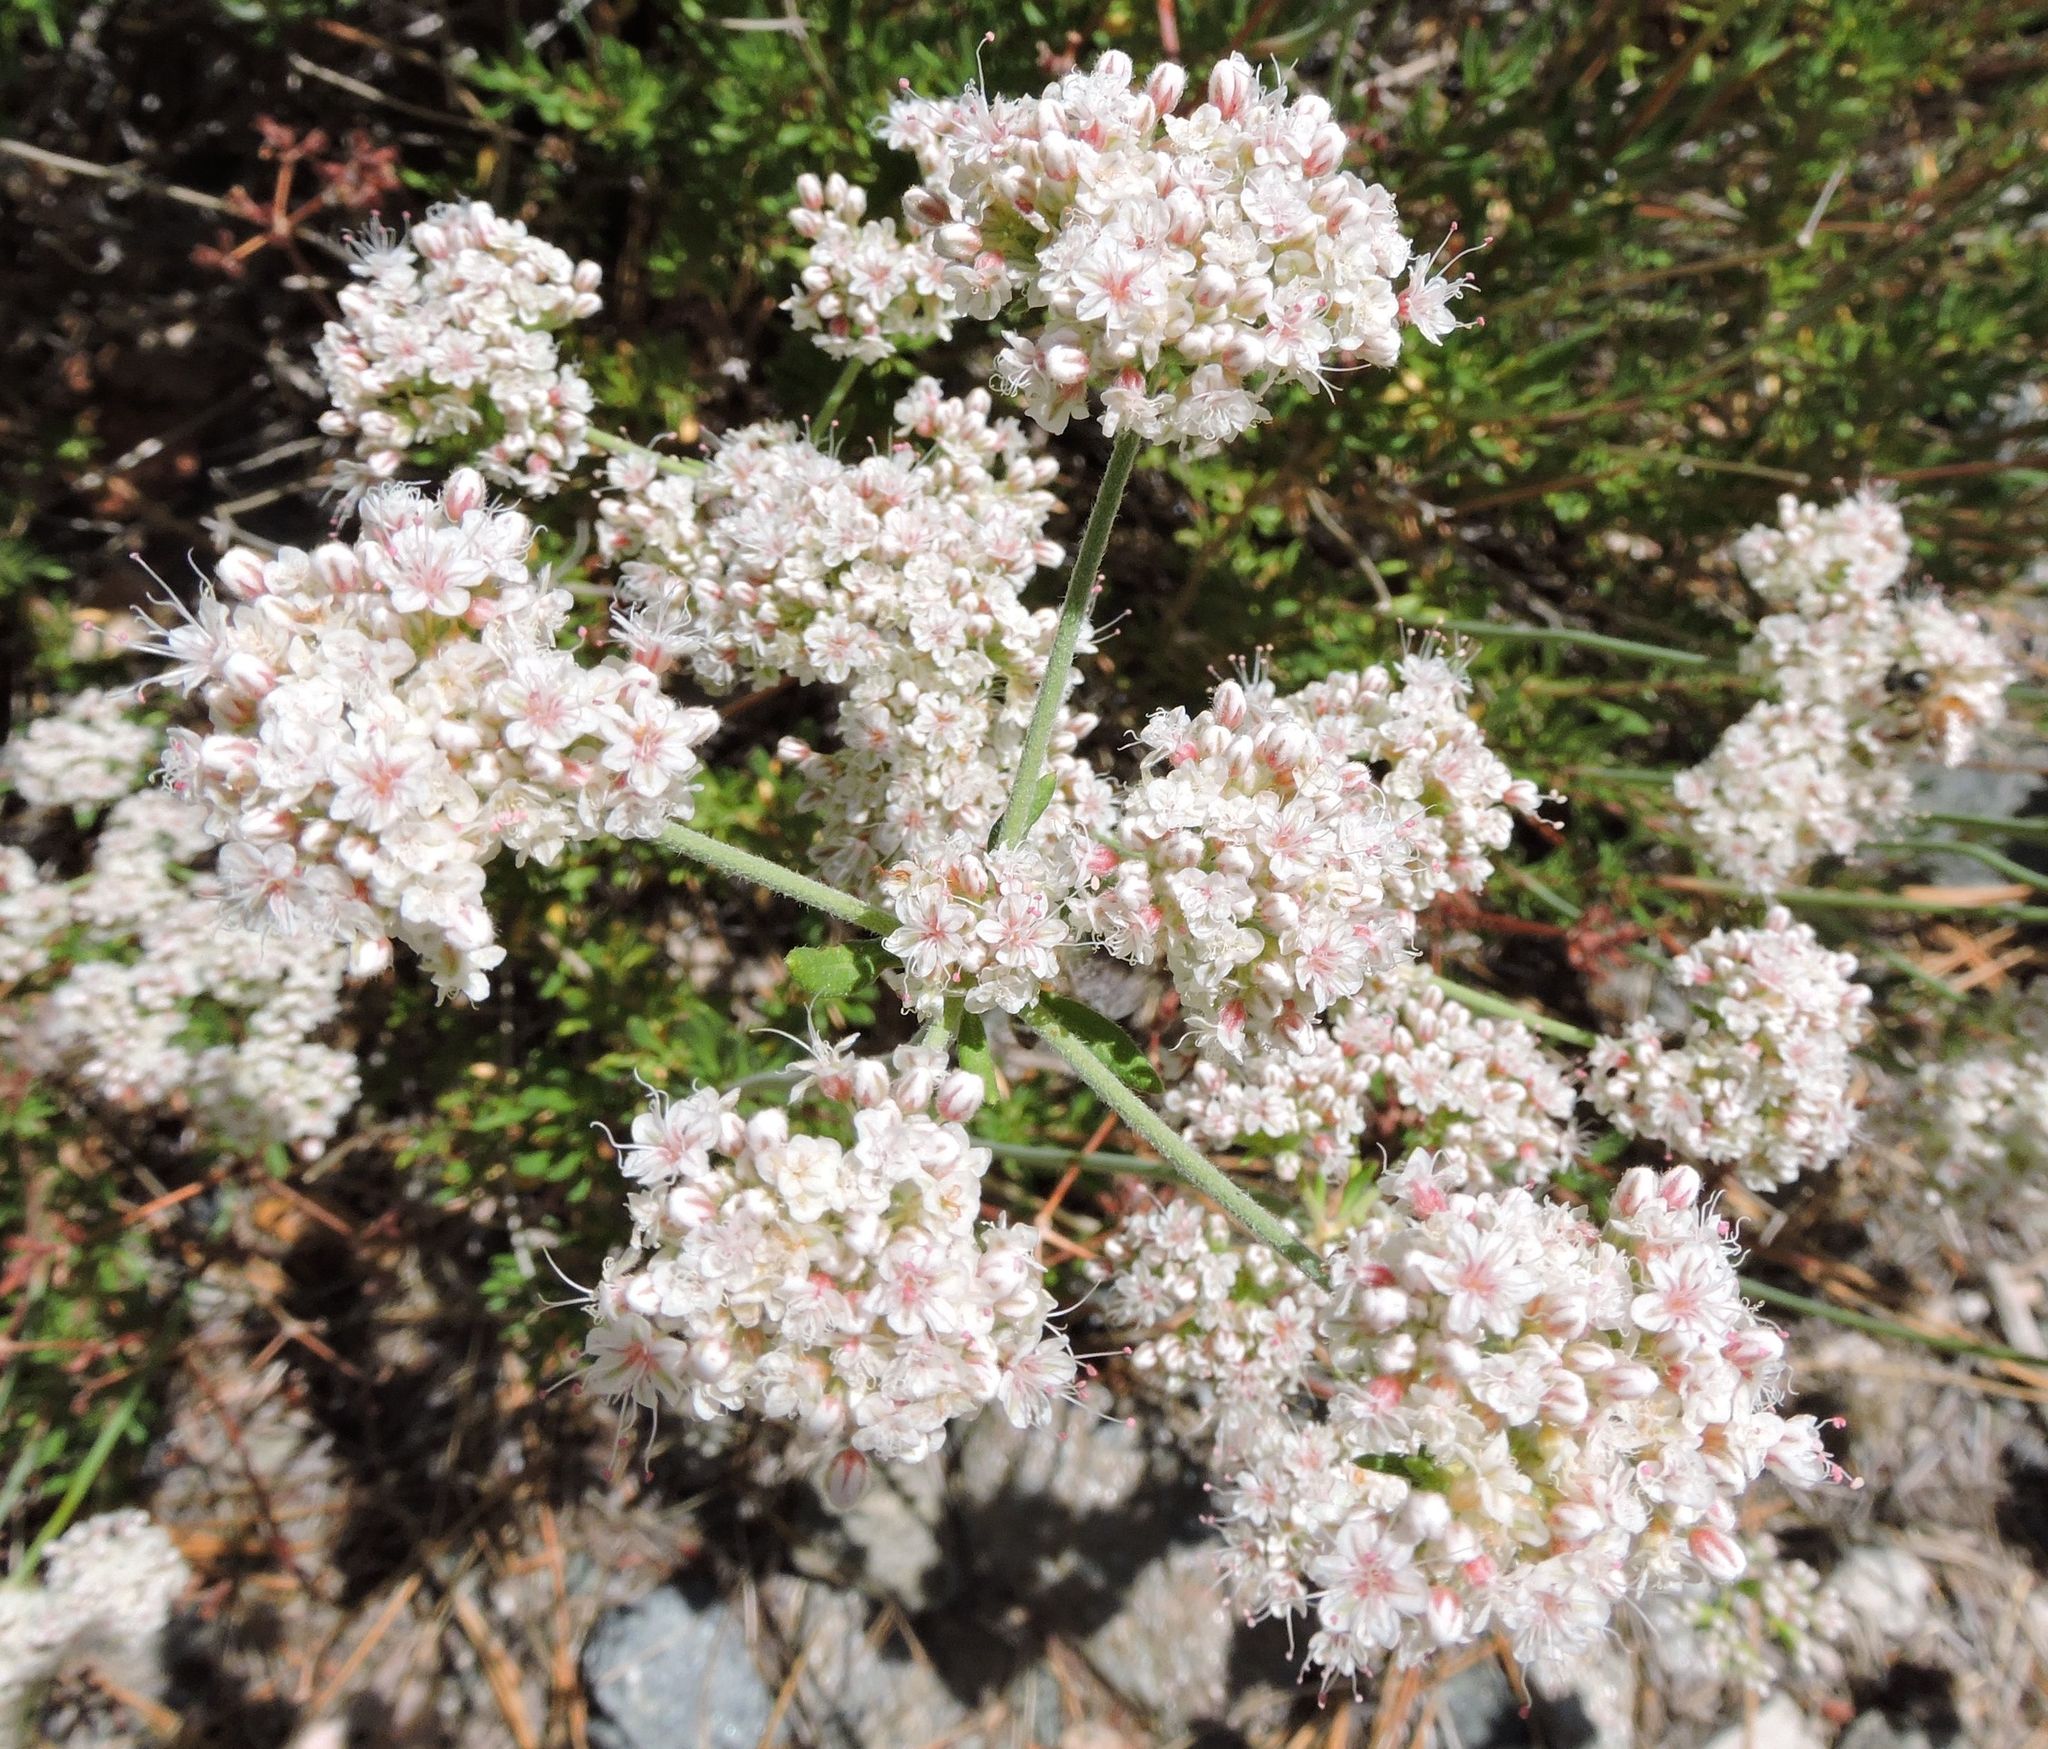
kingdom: Plantae
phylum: Tracheophyta
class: Magnoliopsida
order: Caryophyllales
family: Polygonaceae
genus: Eriogonum
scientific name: Eriogonum fasciculatum
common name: California wild buckwheat
